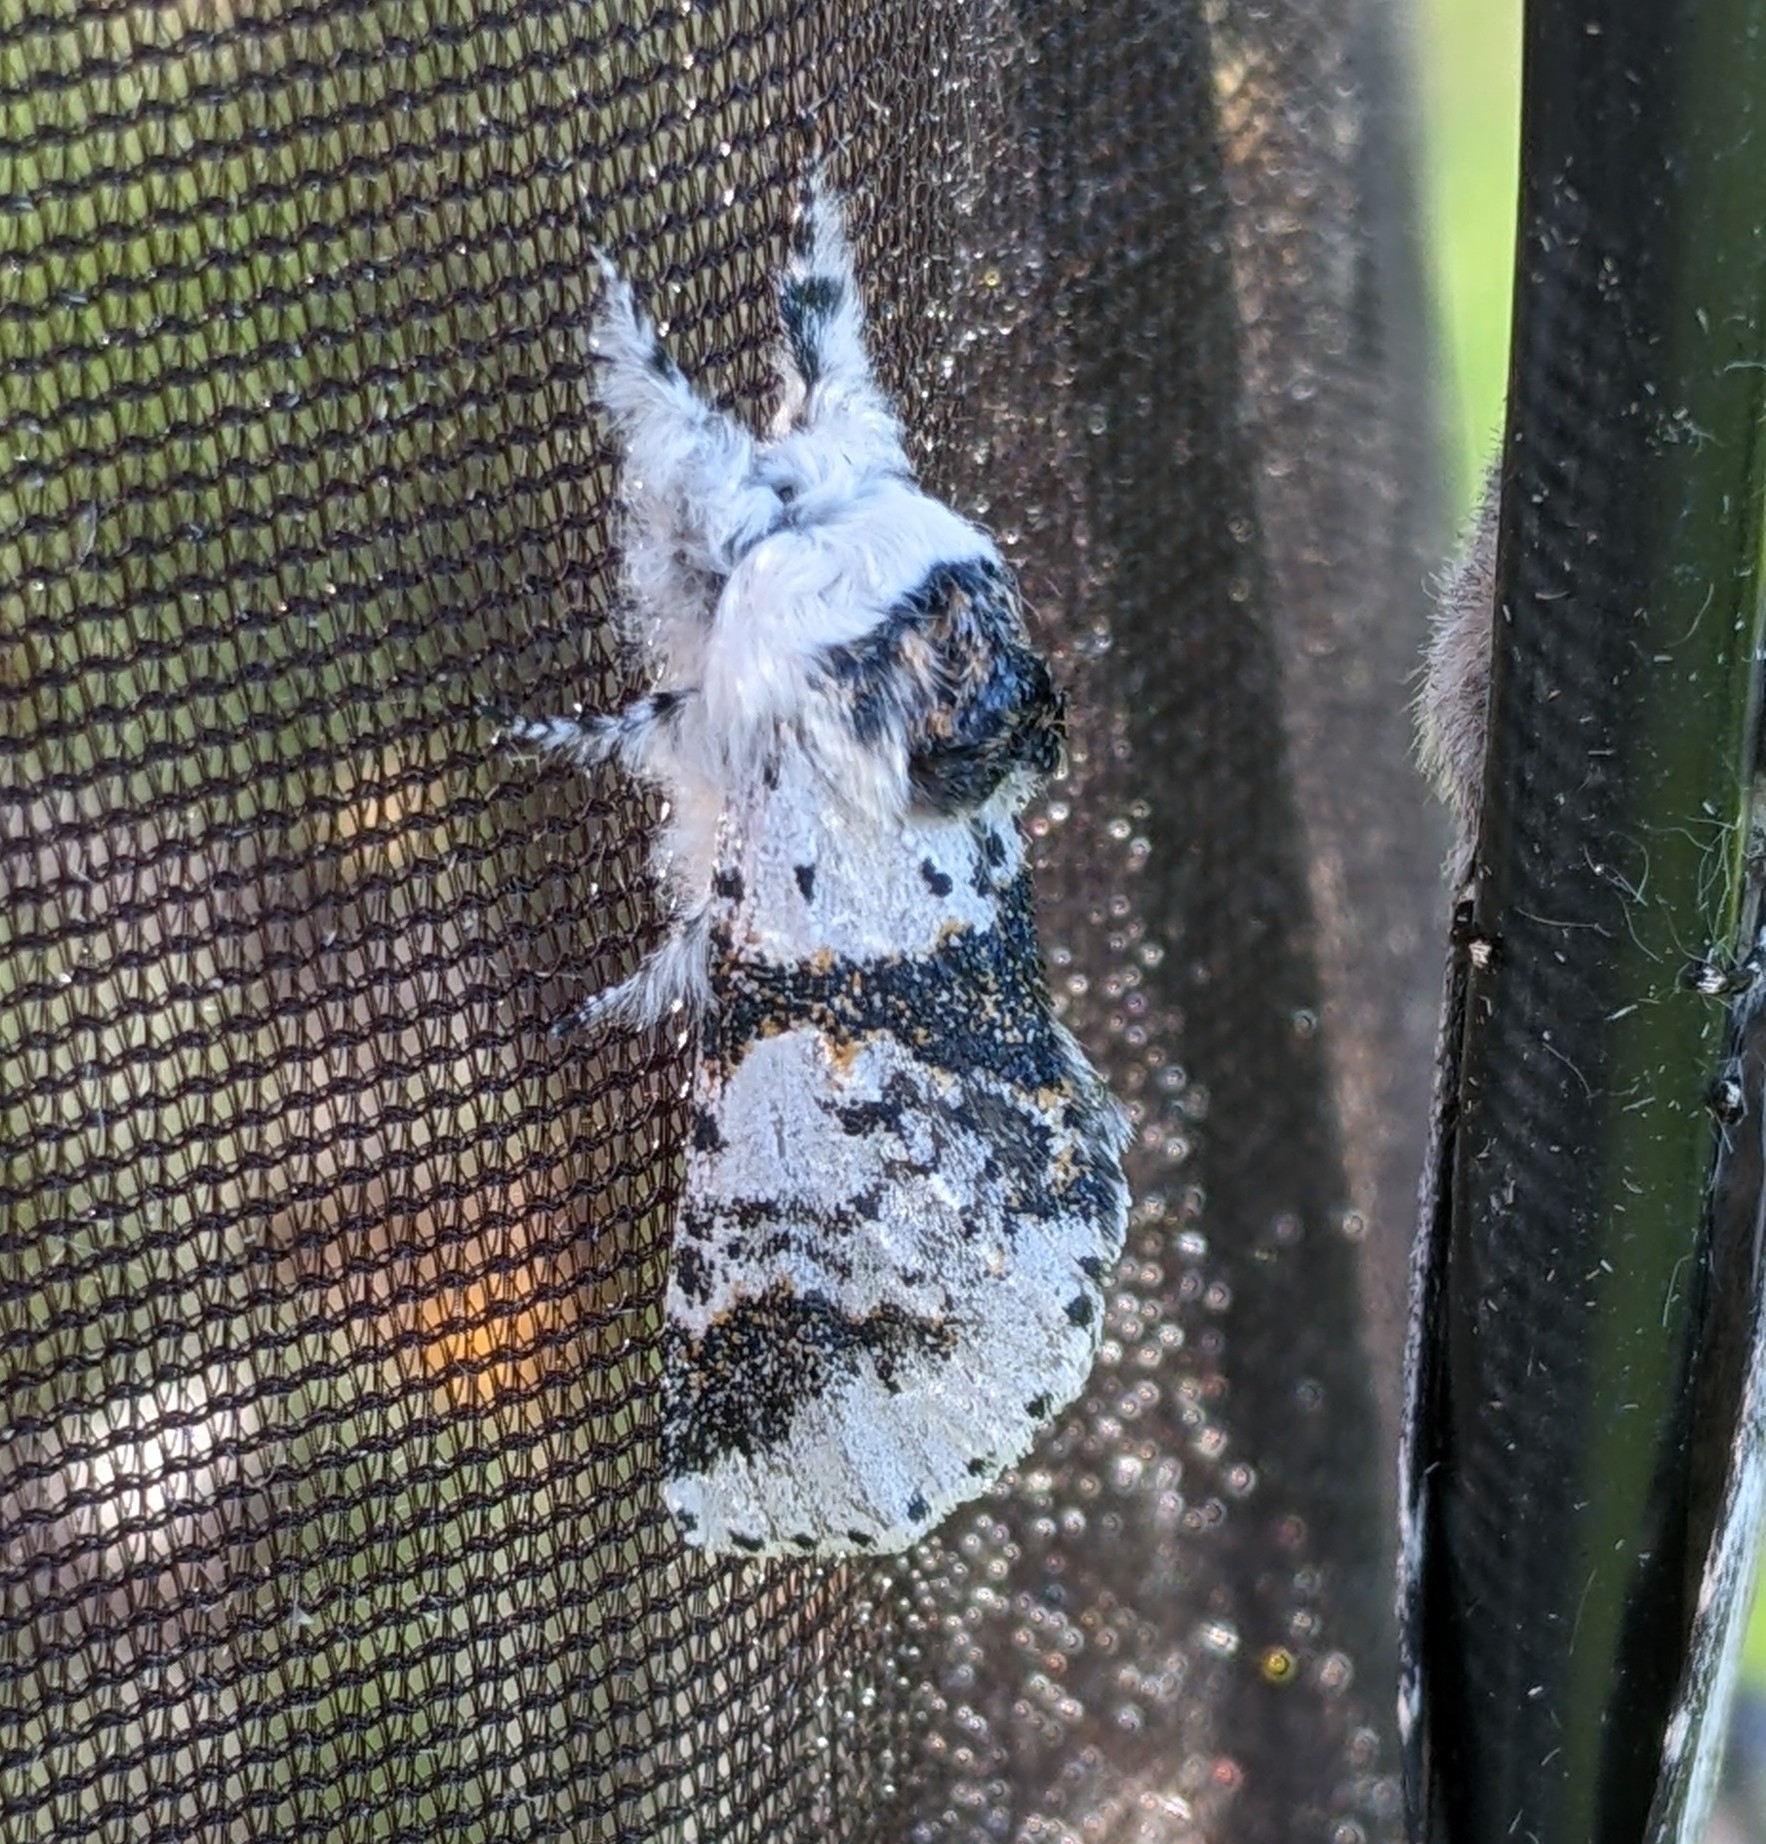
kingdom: Animalia
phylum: Arthropoda
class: Insecta
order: Lepidoptera
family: Notodontidae
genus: Furcula
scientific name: Furcula scolopendrina
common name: Zigzag furcula moth
